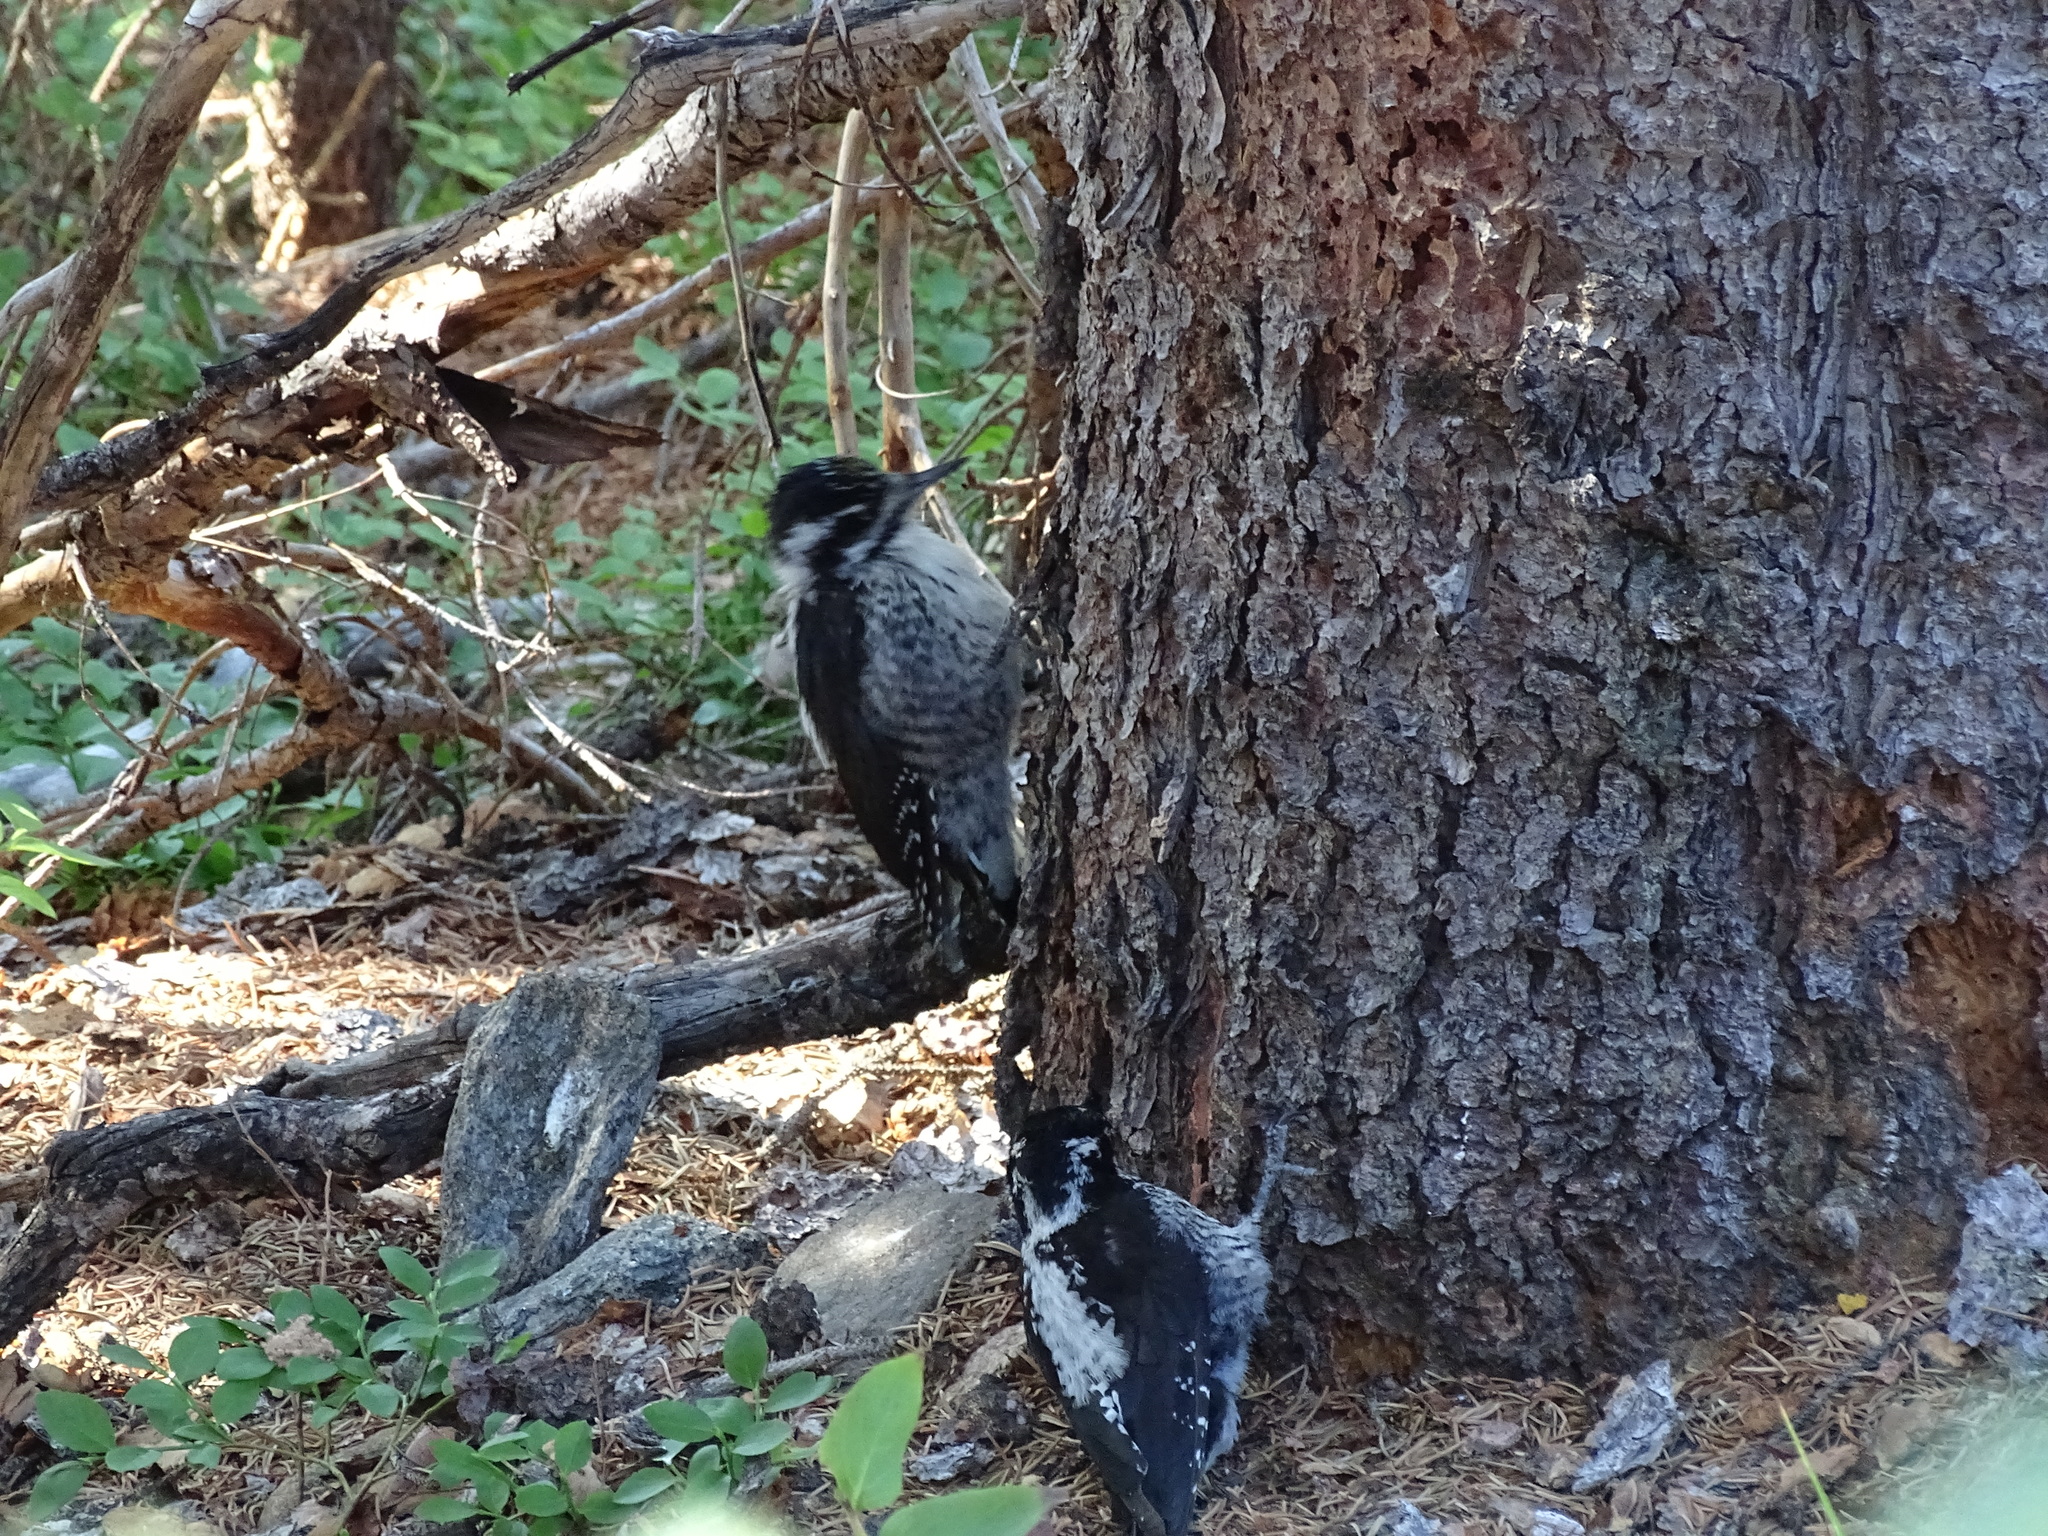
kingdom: Animalia
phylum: Chordata
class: Aves
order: Piciformes
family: Picidae
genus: Picoides
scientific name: Picoides dorsalis
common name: American three-toed woodpecker
